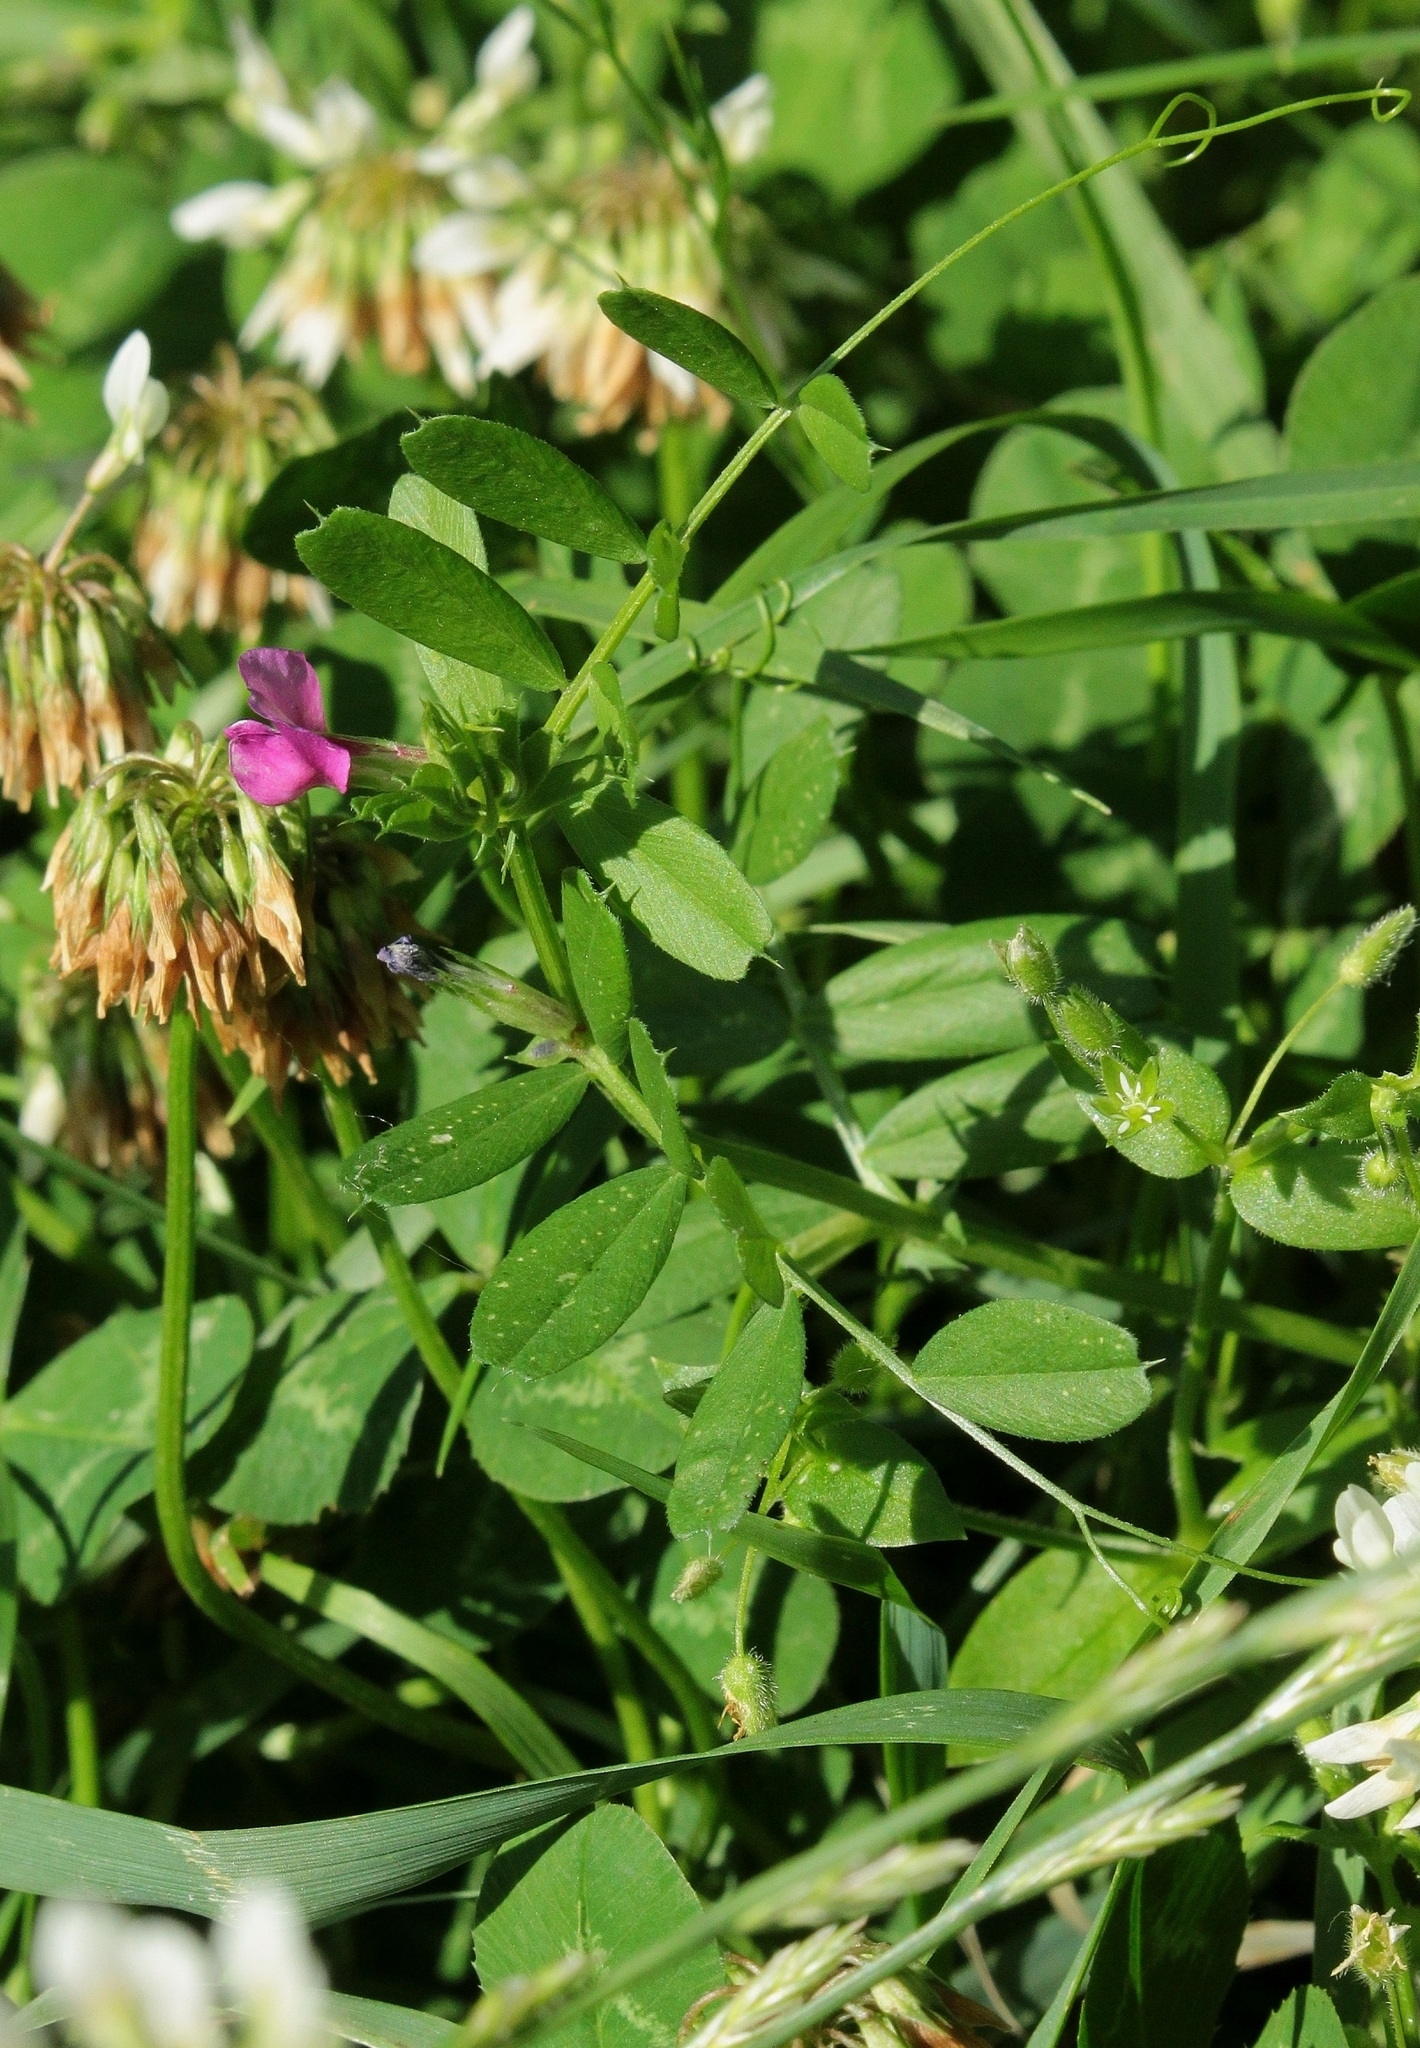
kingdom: Plantae
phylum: Tracheophyta
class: Magnoliopsida
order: Fabales
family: Fabaceae
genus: Vicia
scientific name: Vicia sativa
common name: Garden vetch
